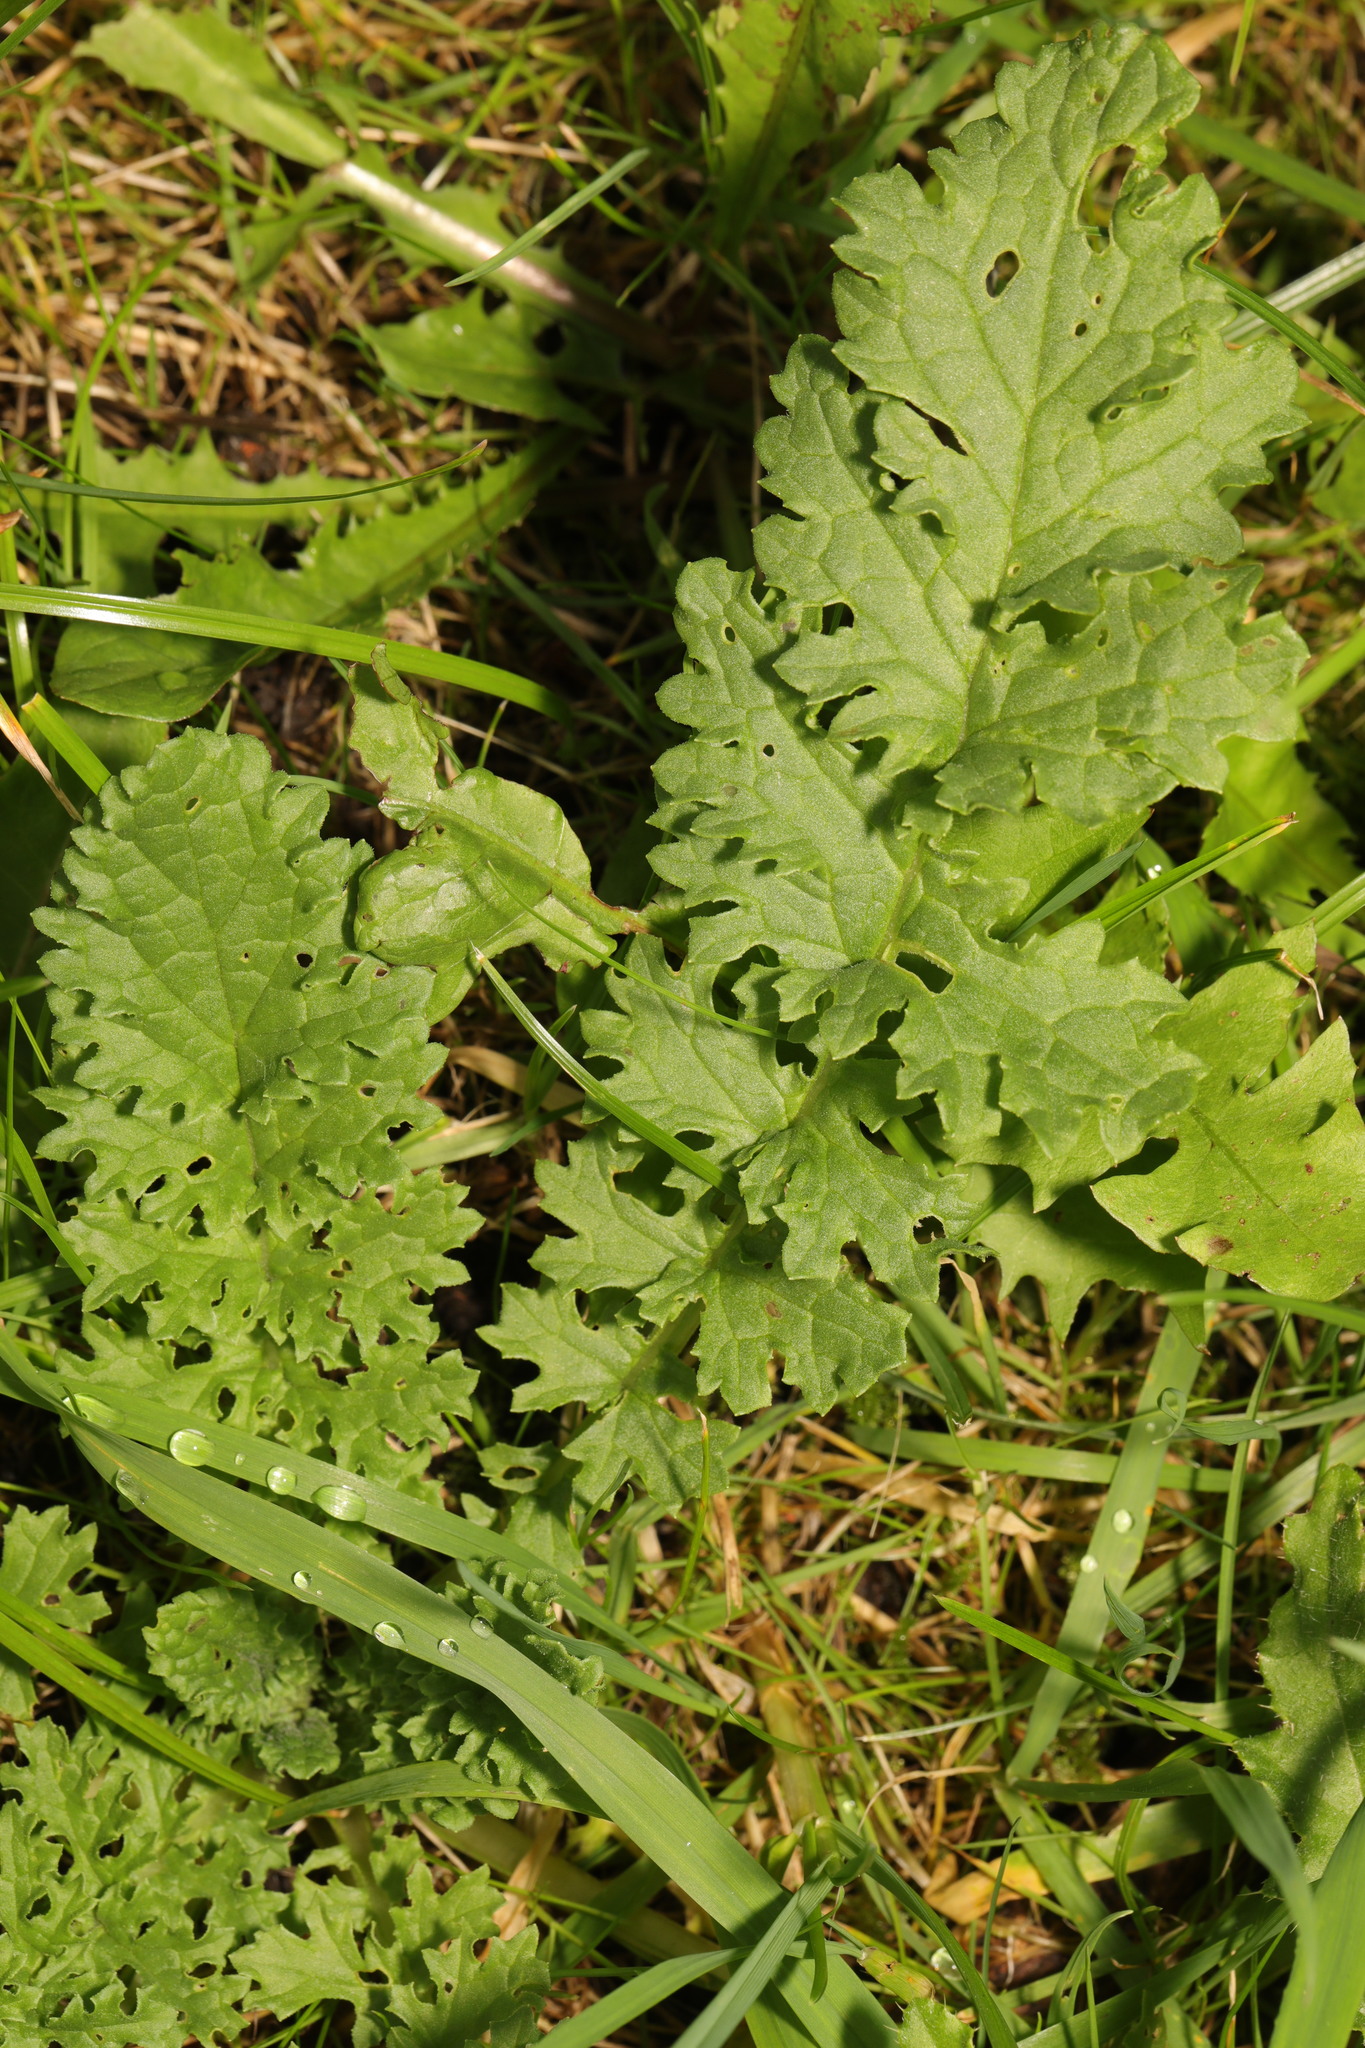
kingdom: Plantae
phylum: Tracheophyta
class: Magnoliopsida
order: Asterales
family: Asteraceae
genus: Jacobaea
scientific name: Jacobaea vulgaris
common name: Stinking willie
